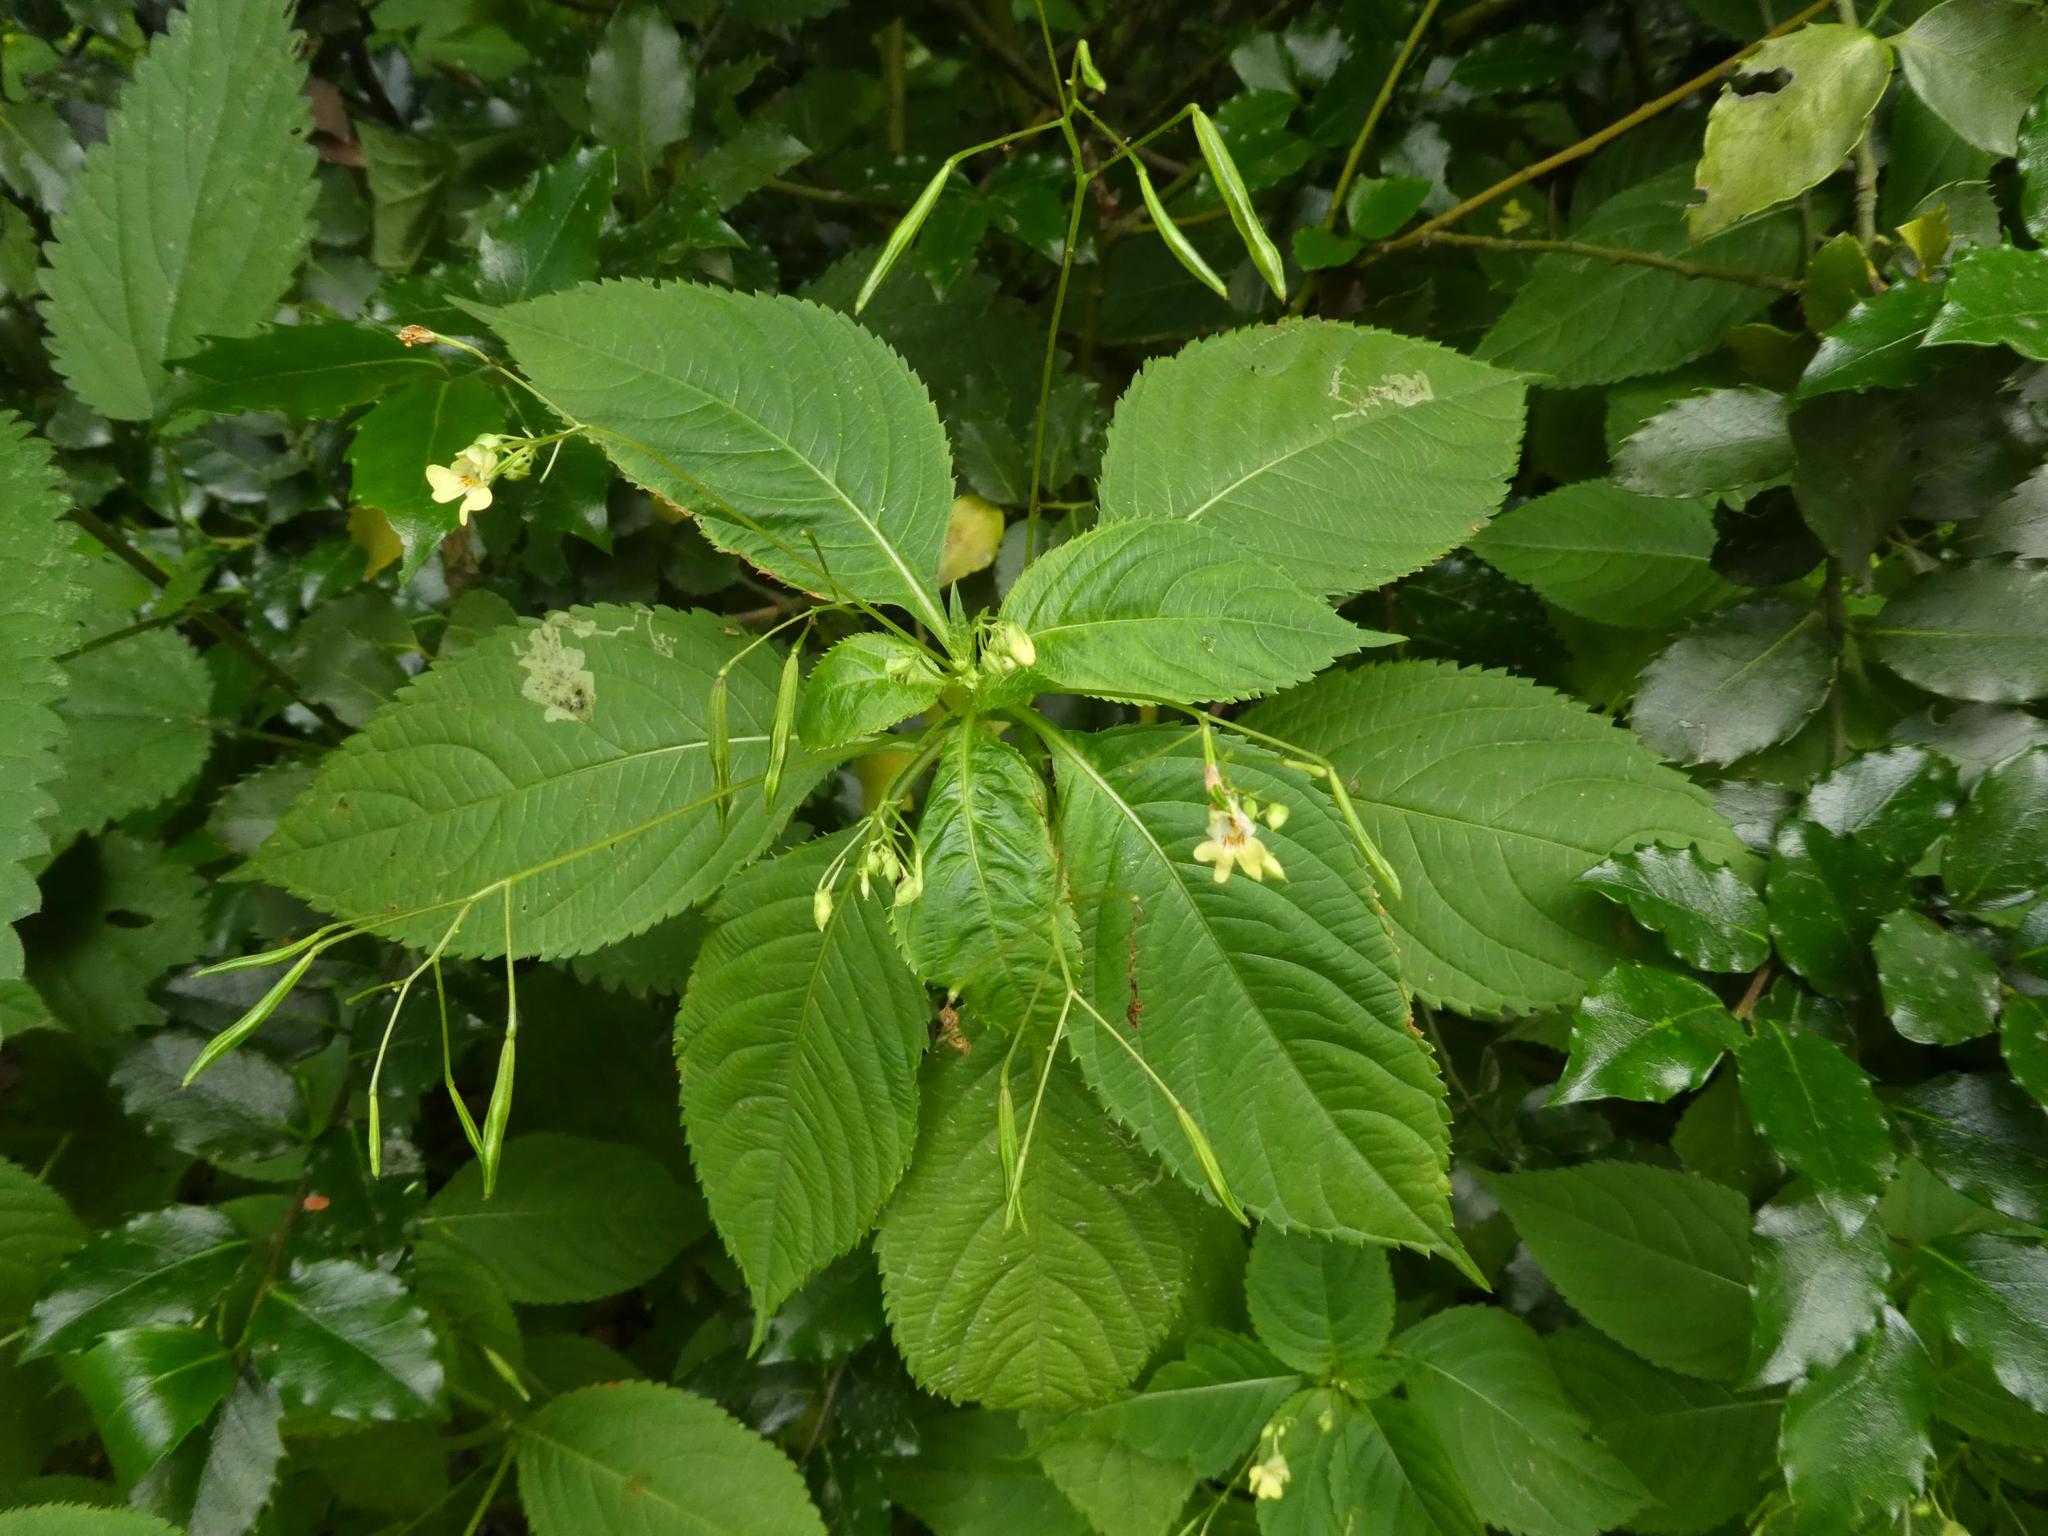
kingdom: Plantae
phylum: Tracheophyta
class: Magnoliopsida
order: Ericales
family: Balsaminaceae
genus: Impatiens
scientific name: Impatiens parviflora
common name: Small balsam
